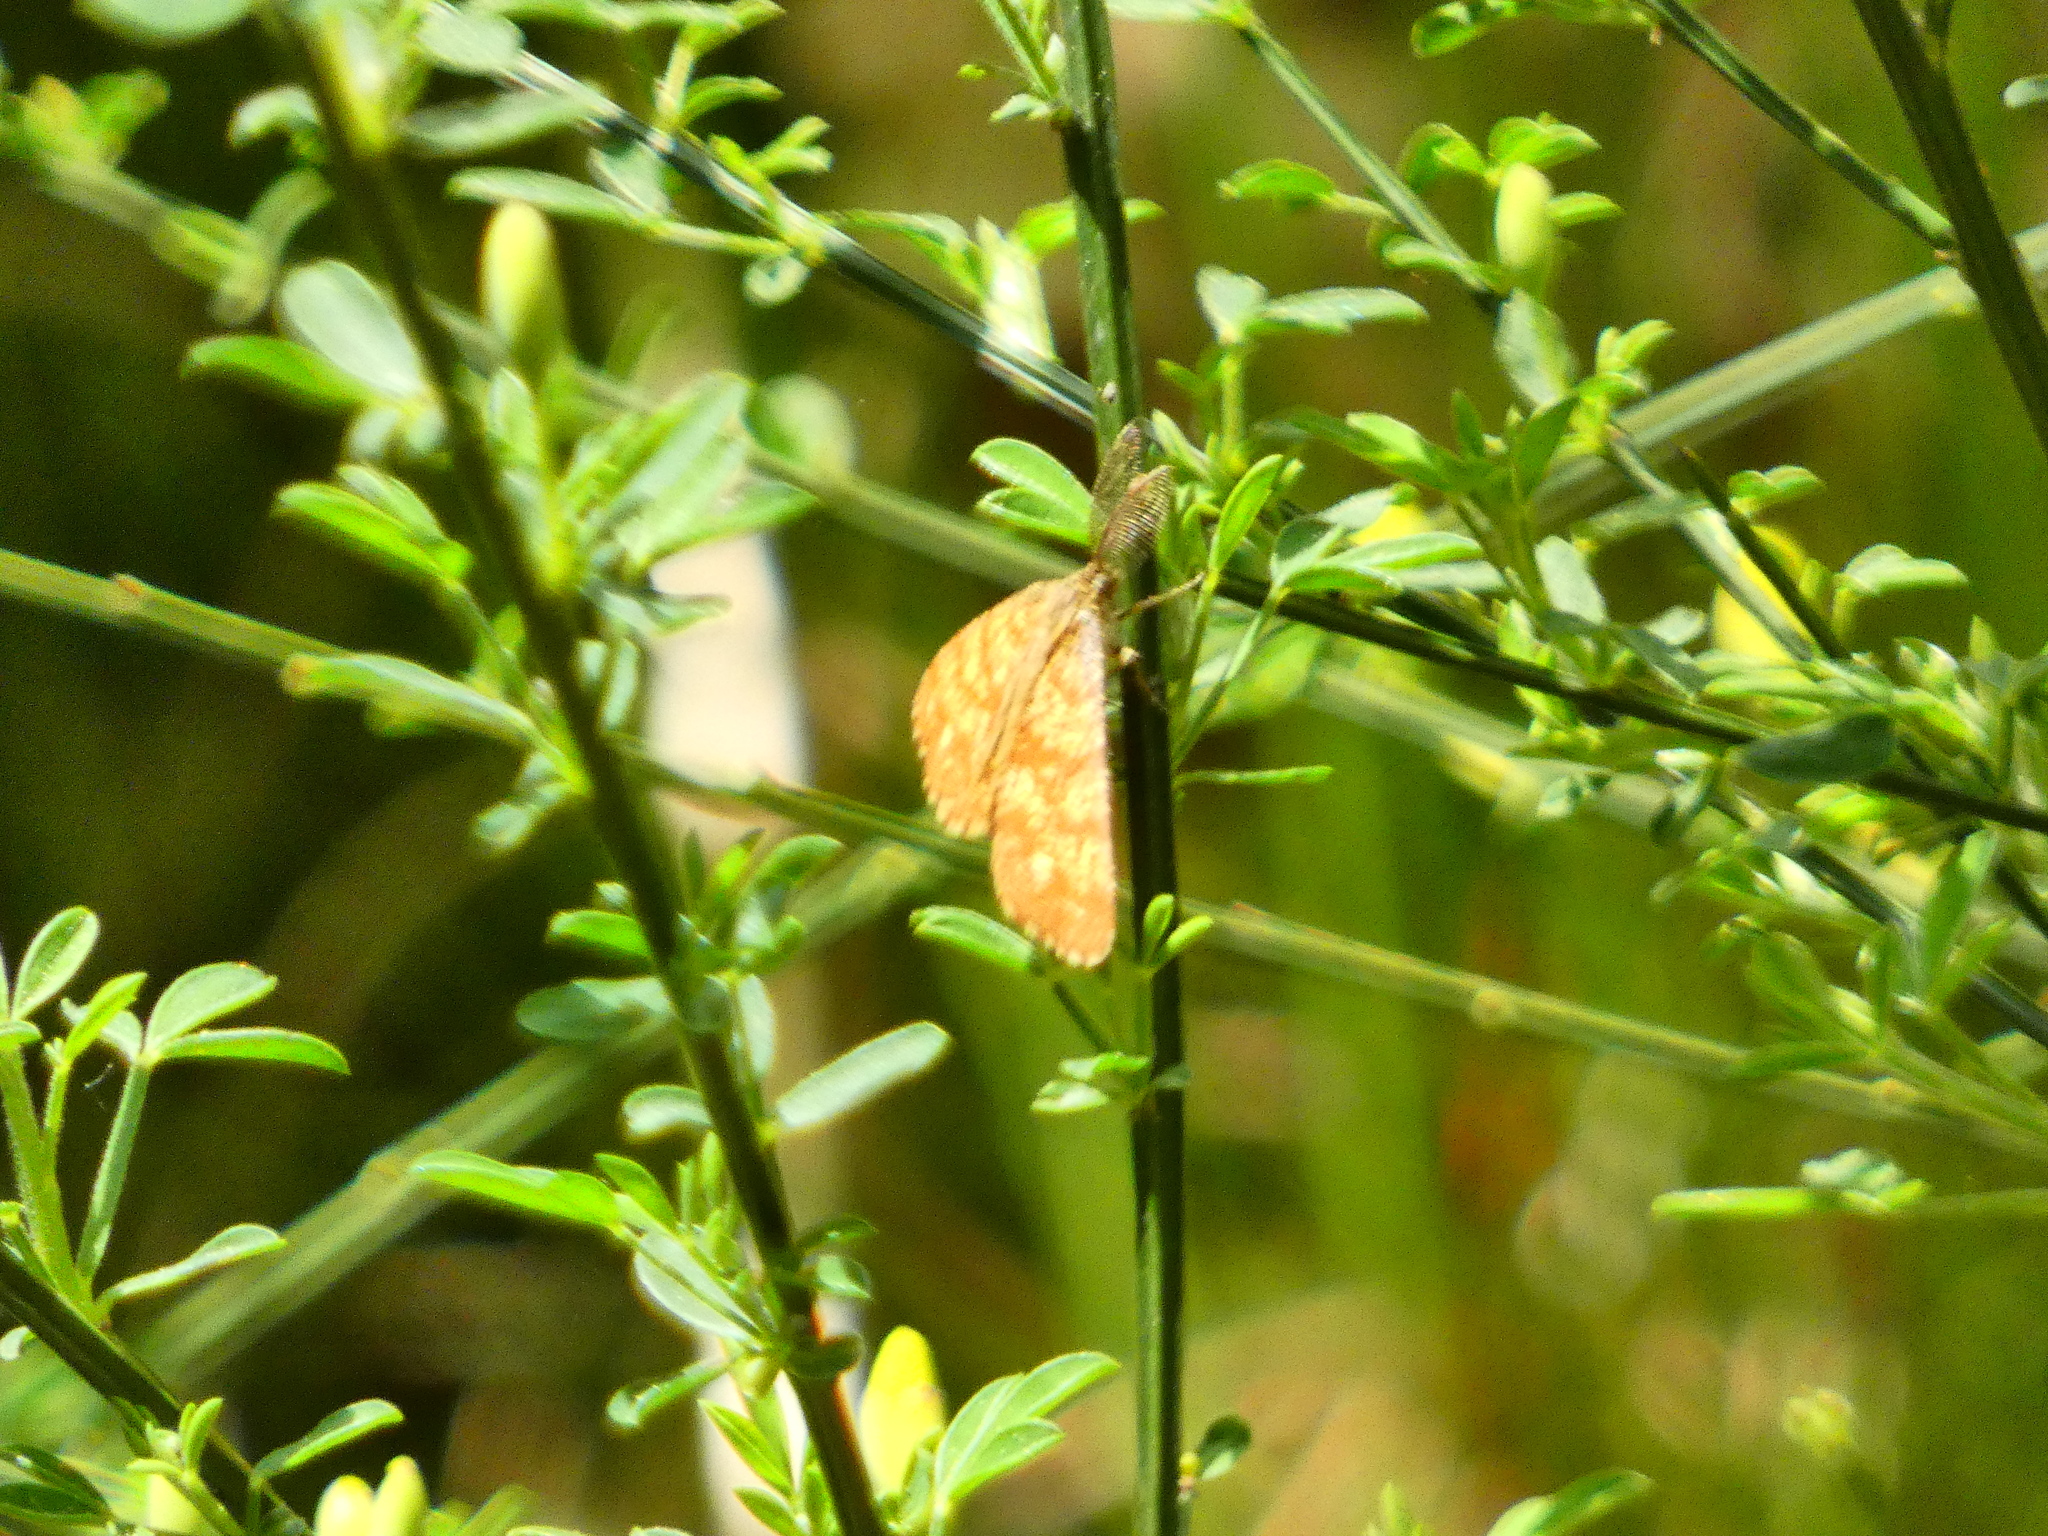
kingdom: Animalia
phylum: Arthropoda
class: Insecta
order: Lepidoptera
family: Geometridae
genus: Ematurga
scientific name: Ematurga atomaria
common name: Common heath
